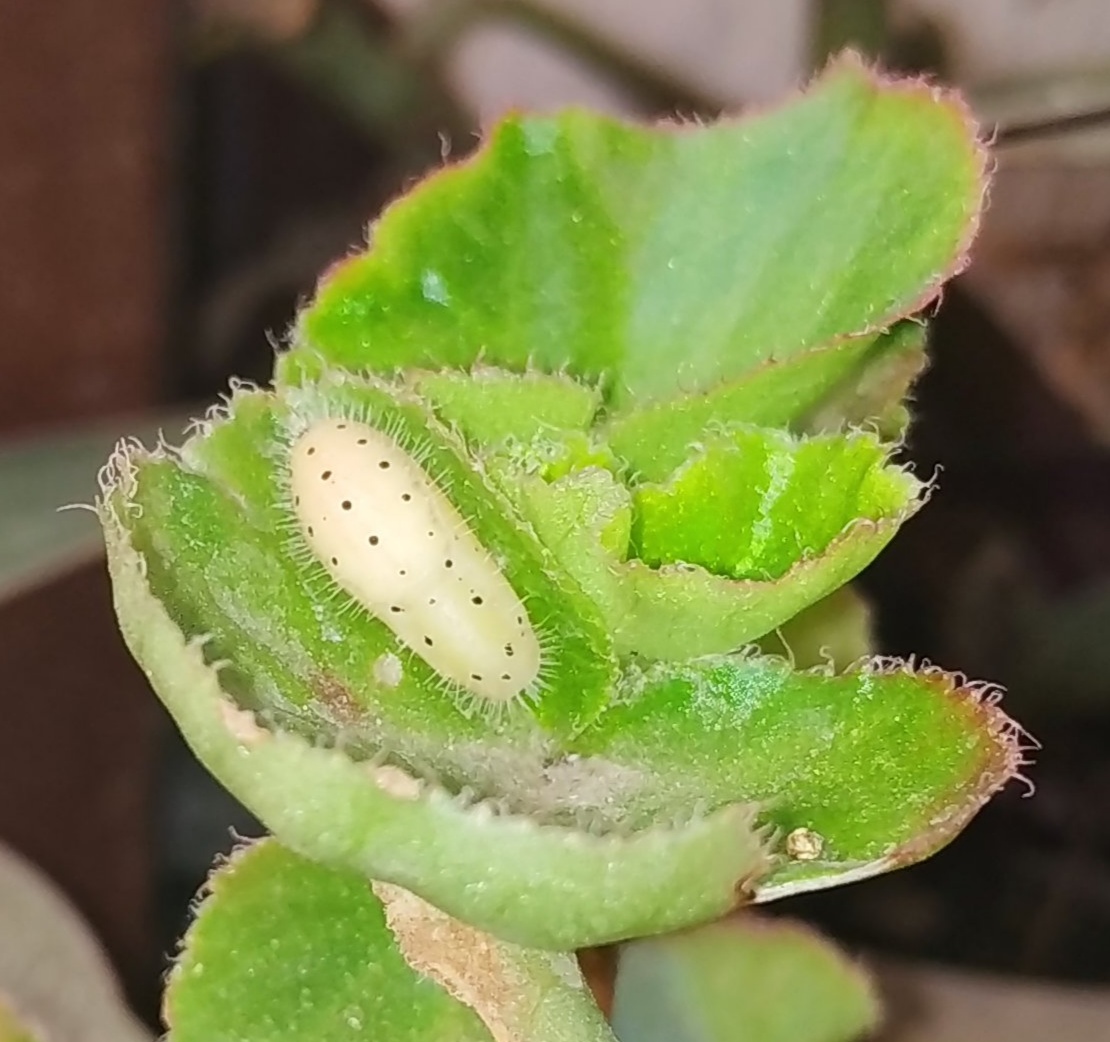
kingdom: Animalia
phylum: Arthropoda
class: Insecta
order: Lepidoptera
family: Lycaenidae
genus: Talicada
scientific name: Talicada nyseus
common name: Red pierrot
